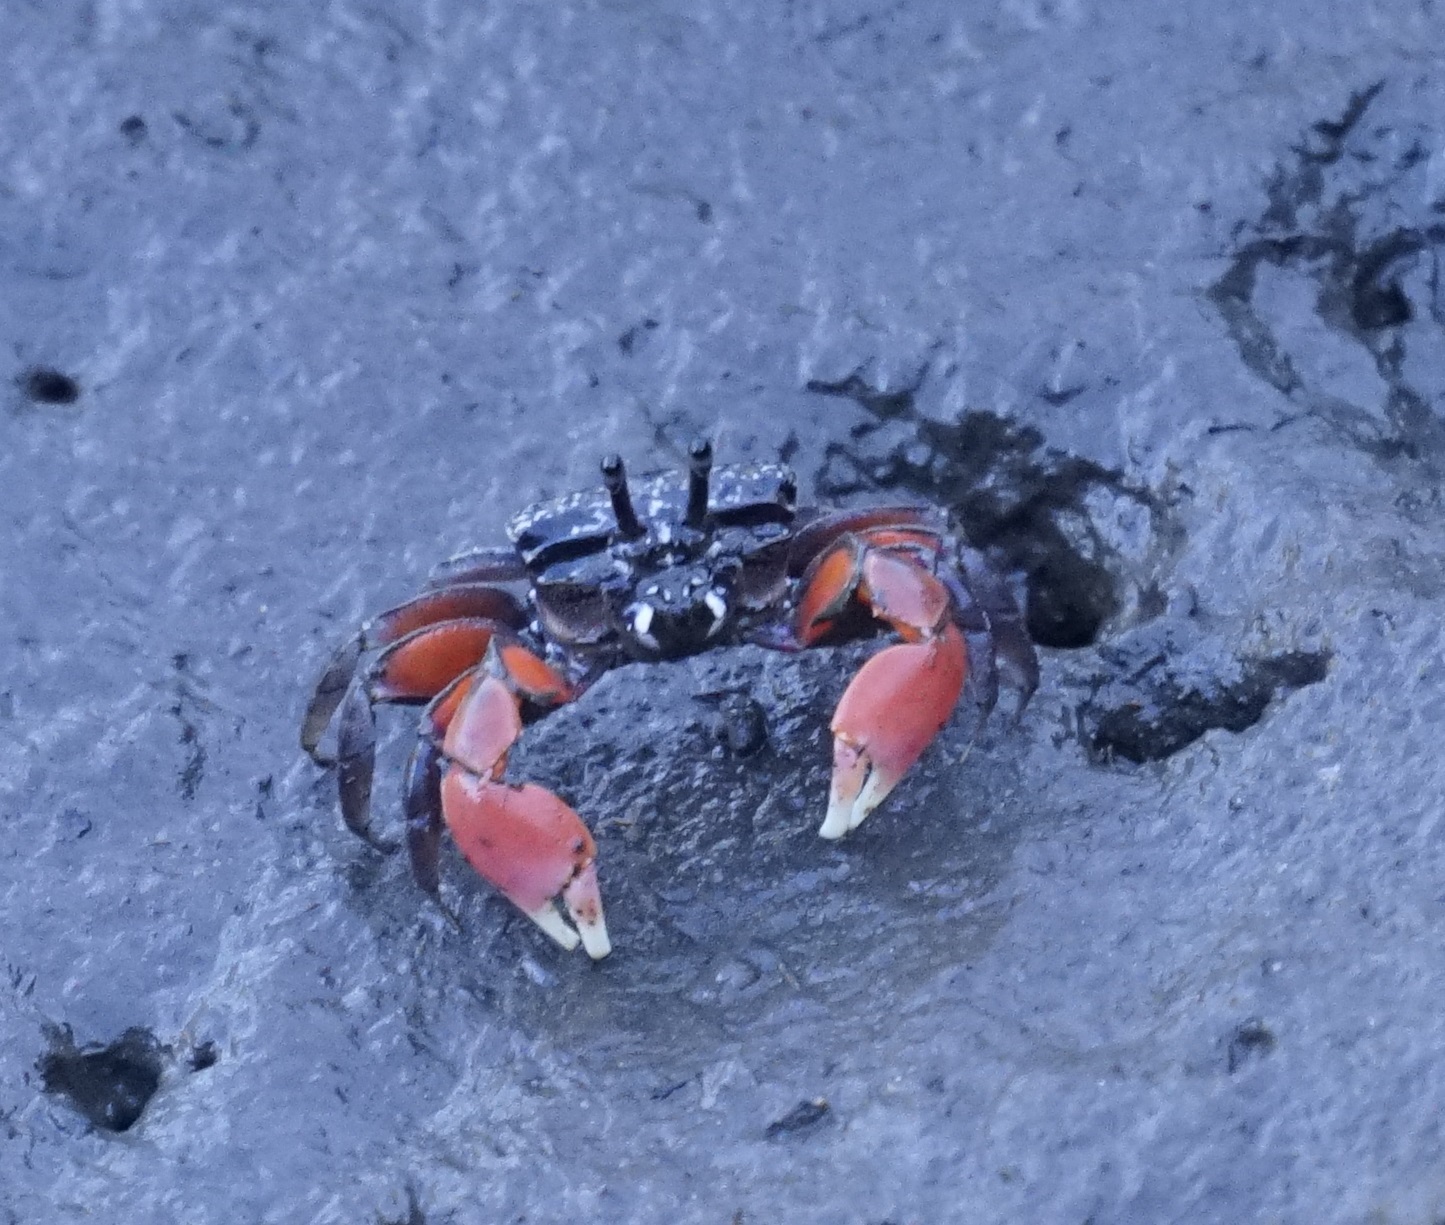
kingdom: Animalia
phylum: Arthropoda
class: Malacostraca
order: Decapoda
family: Heloeciidae
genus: Heloecius
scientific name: Heloecius cordiformis
